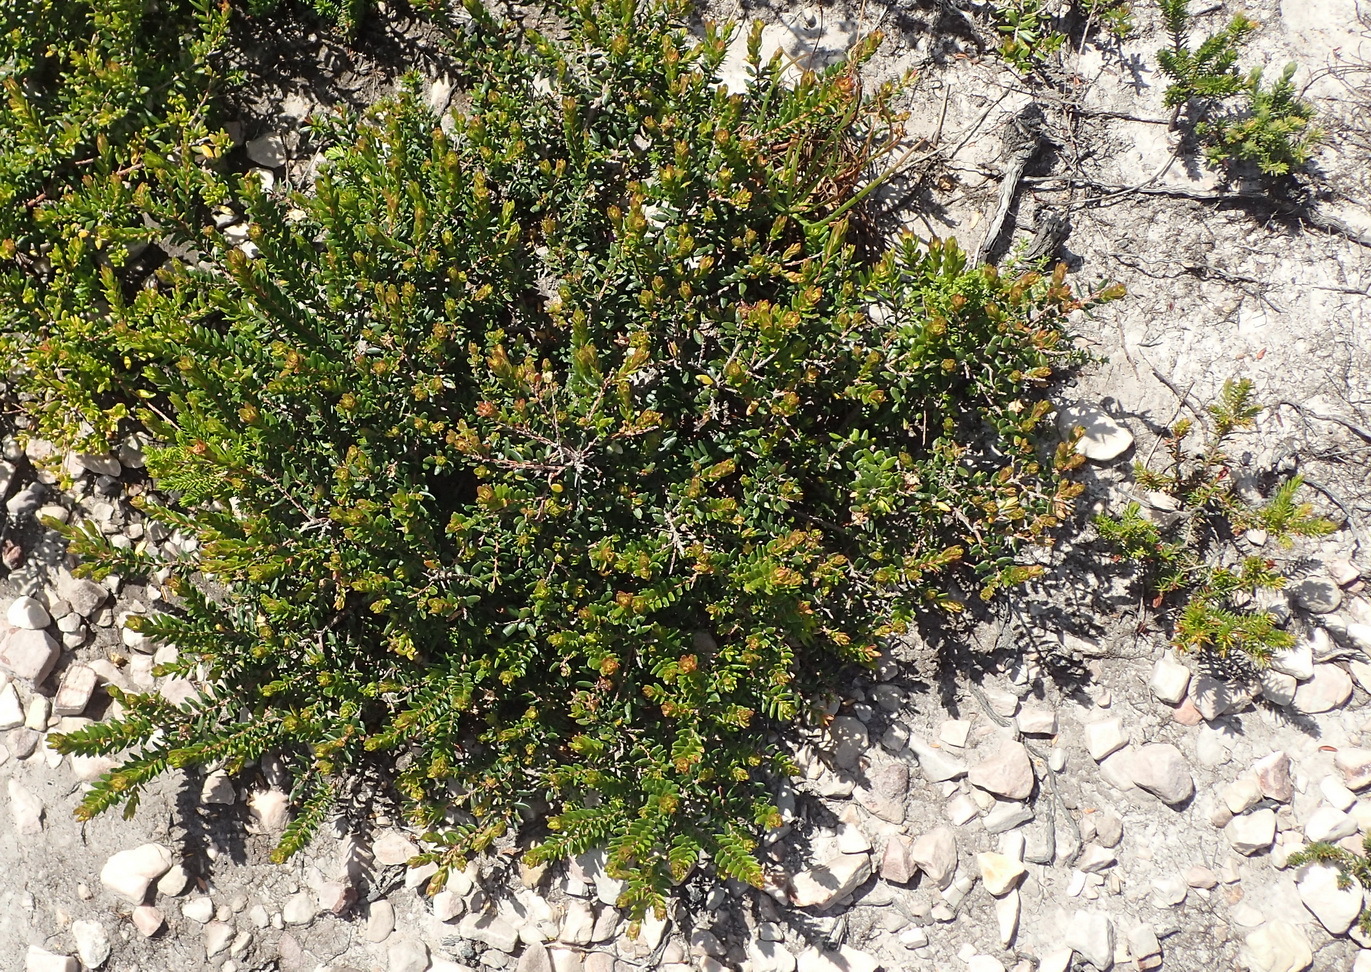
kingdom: Plantae
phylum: Tracheophyta
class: Magnoliopsida
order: Sapindales
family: Rutaceae
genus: Agathosma
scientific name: Agathosma ovata
